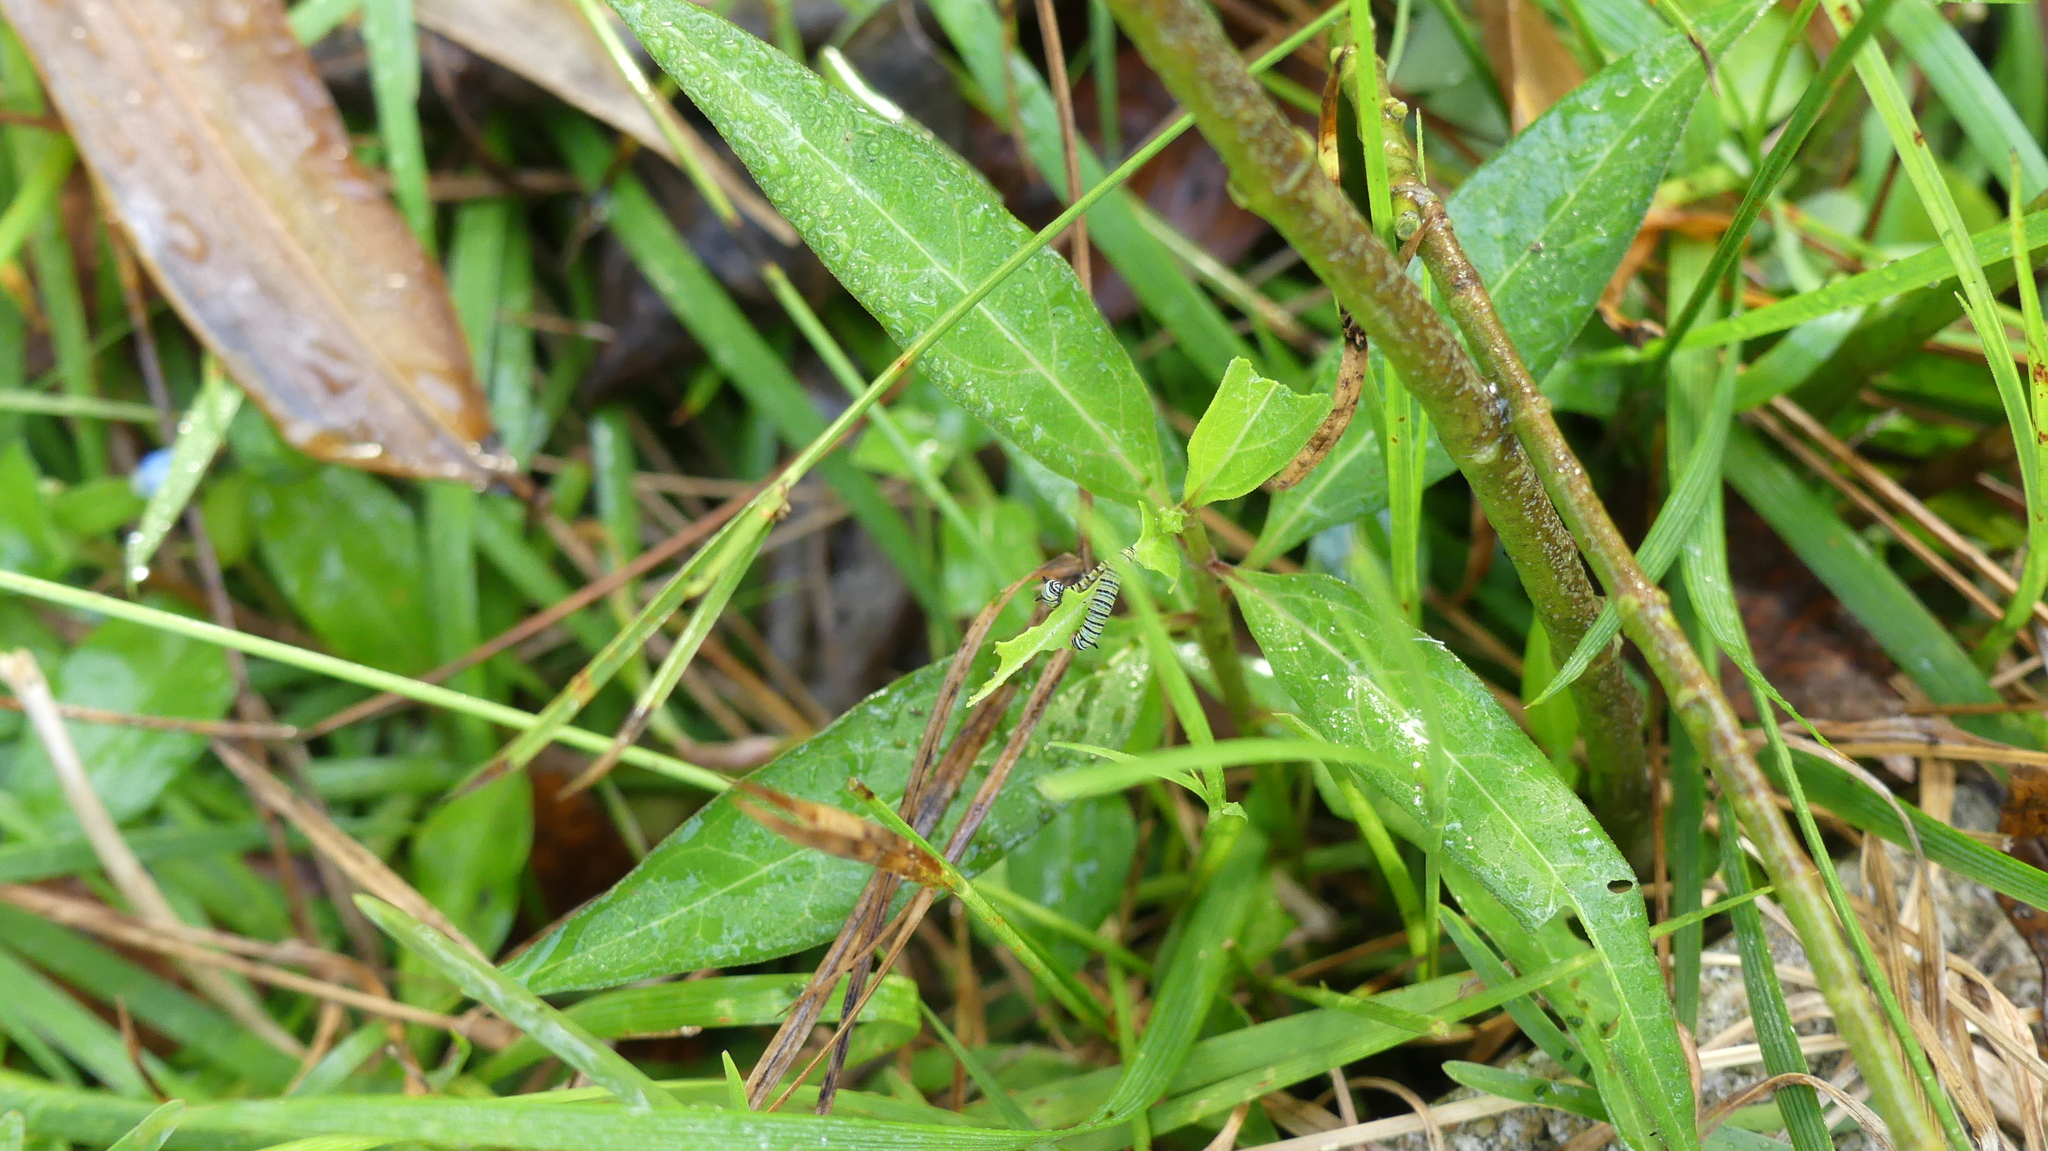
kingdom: Animalia
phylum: Arthropoda
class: Insecta
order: Lepidoptera
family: Nymphalidae
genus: Danaus
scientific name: Danaus plexippus
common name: Monarch
